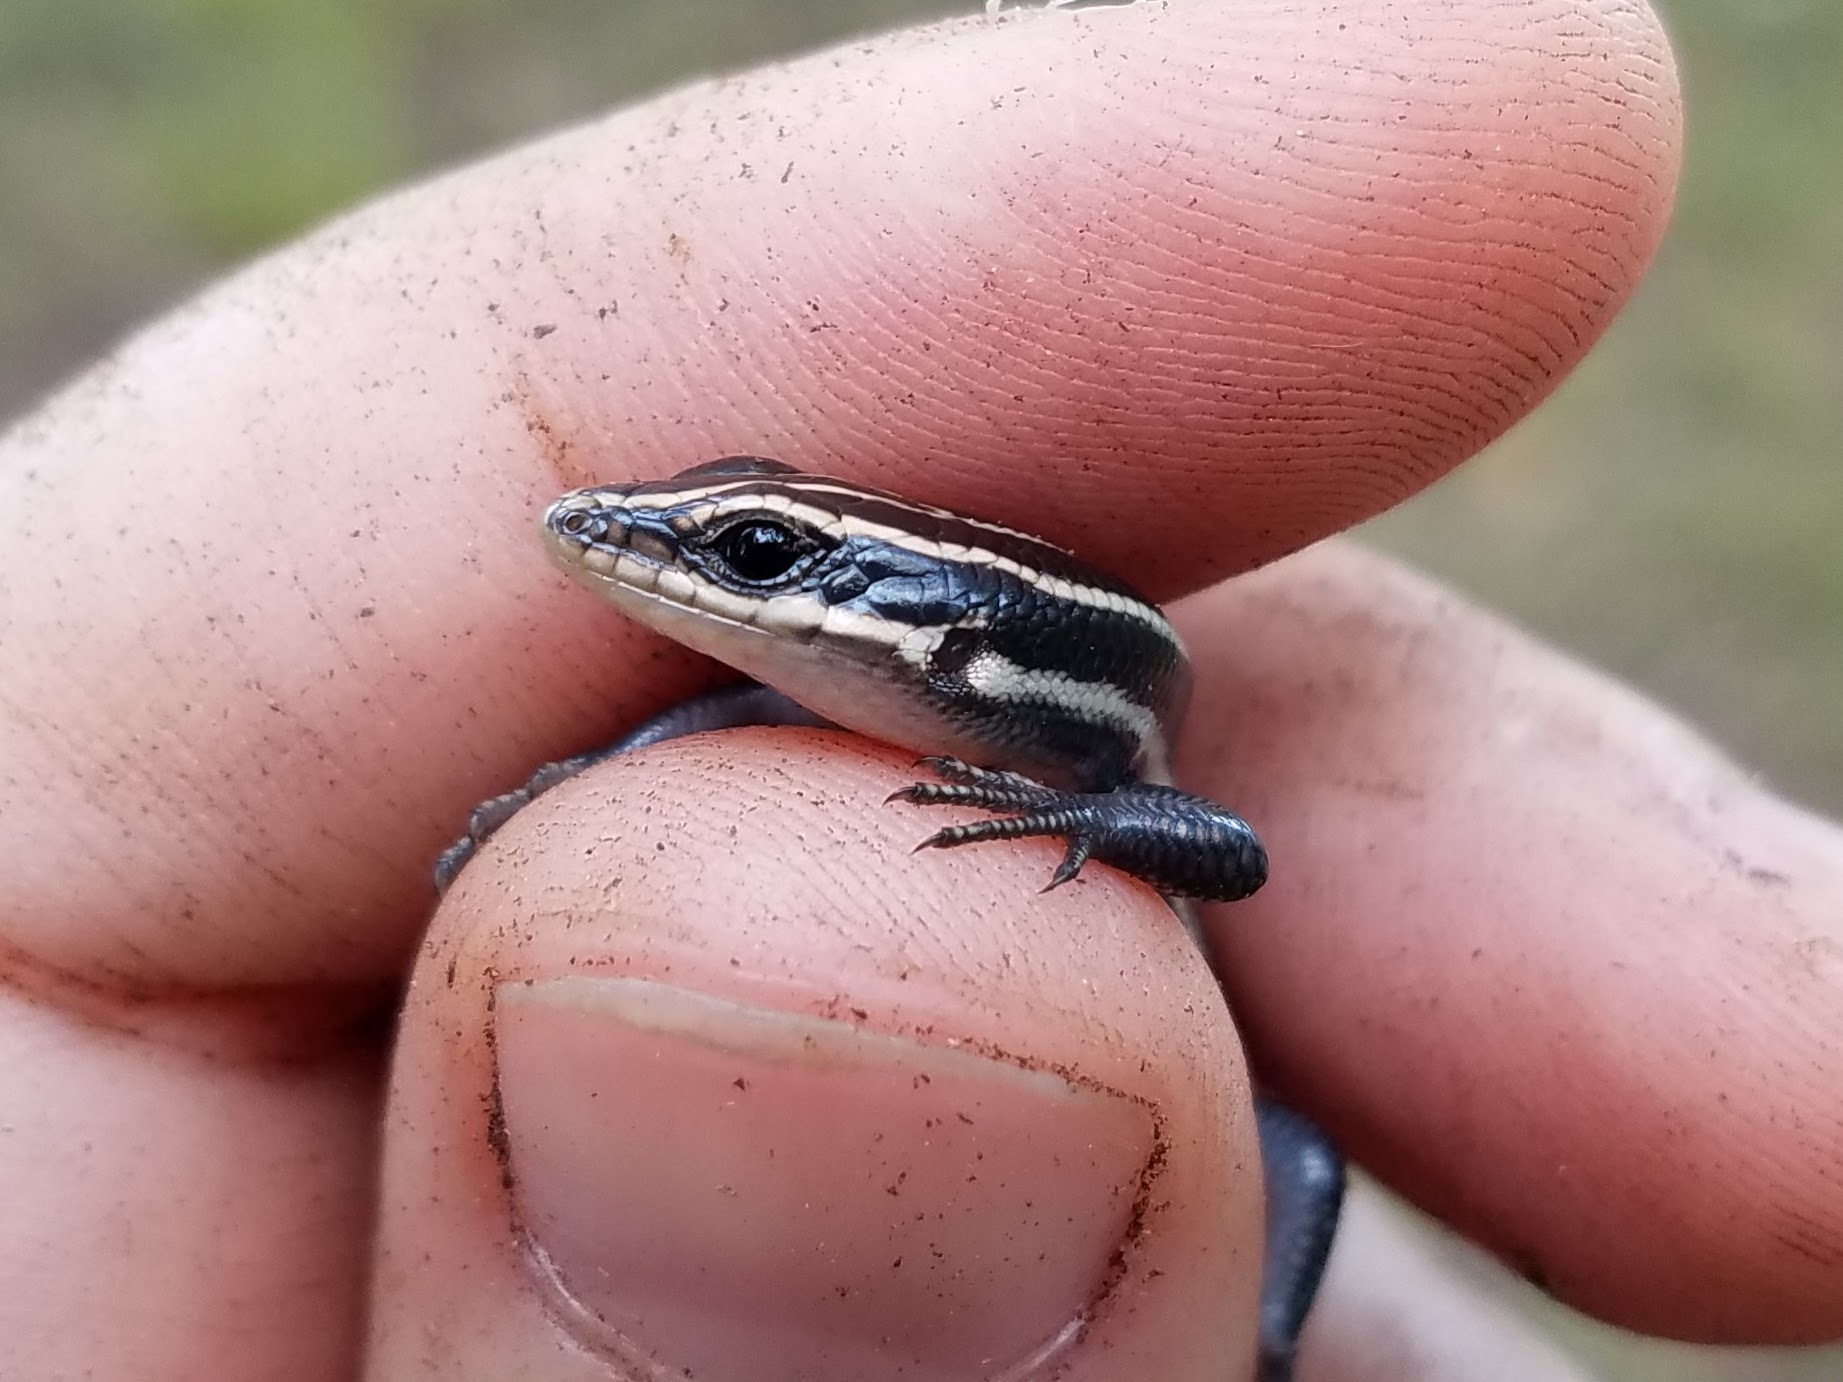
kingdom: Animalia
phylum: Chordata
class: Squamata
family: Scincidae
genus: Plestiodon
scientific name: Plestiodon fasciatus
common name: Five-lined skink
